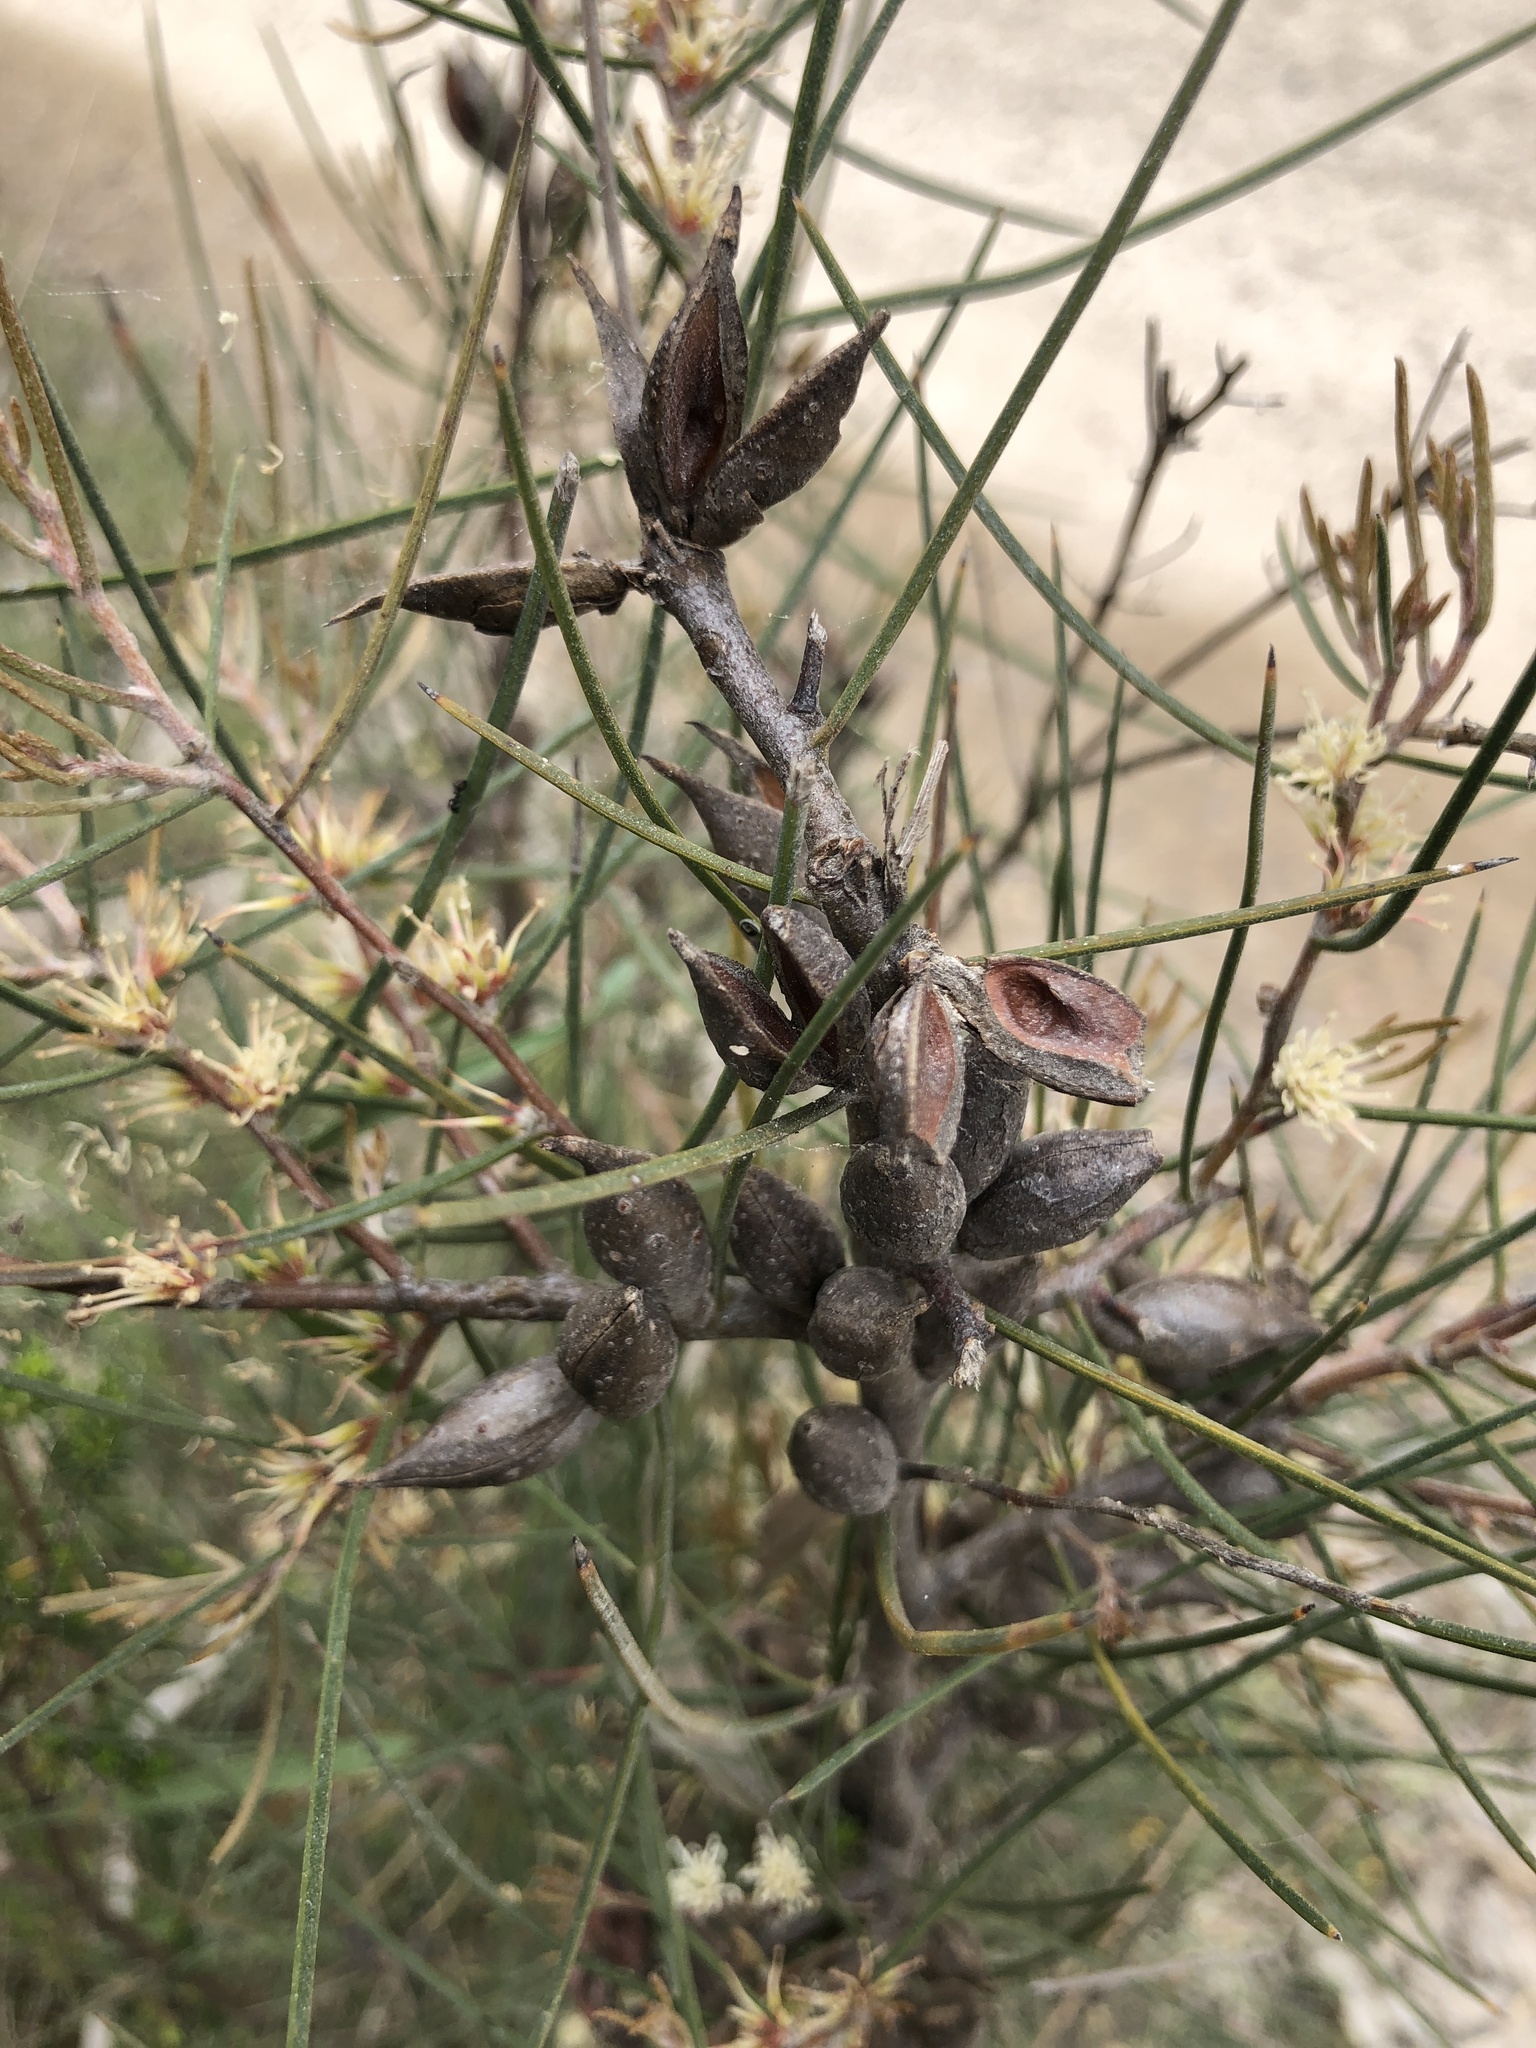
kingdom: Plantae
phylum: Tracheophyta
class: Magnoliopsida
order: Proteales
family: Proteaceae
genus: Hakea
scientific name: Hakea carinata
